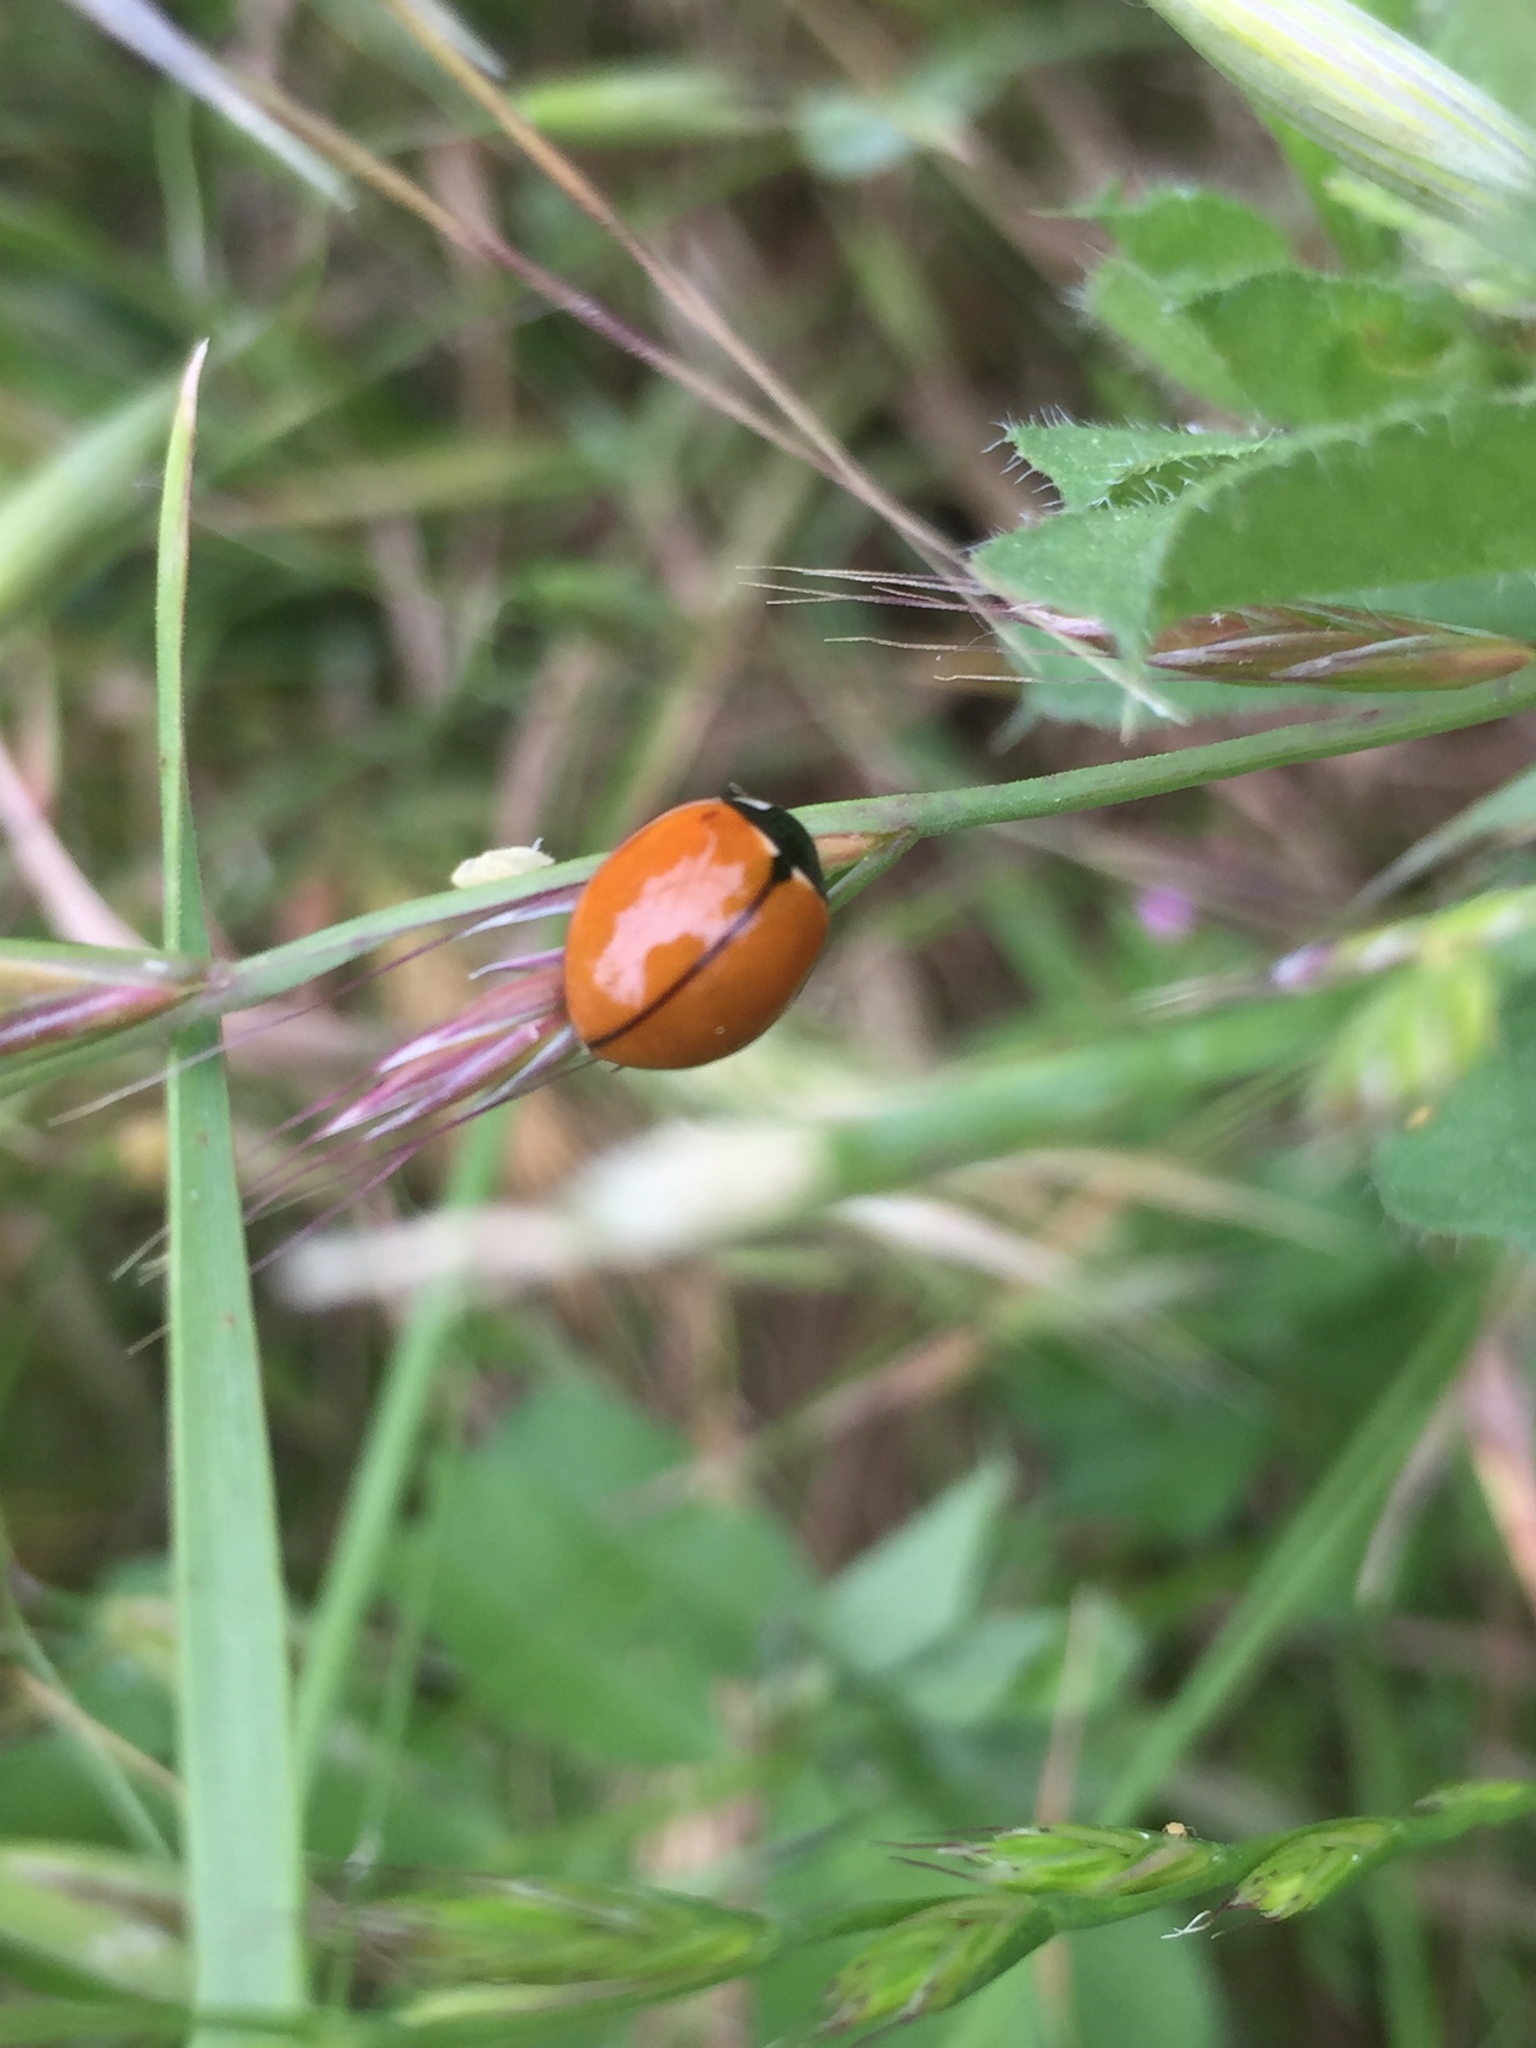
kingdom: Animalia
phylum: Arthropoda
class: Insecta
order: Coleoptera
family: Coccinellidae
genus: Coccinella
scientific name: Coccinella californica
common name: Lady beetle
